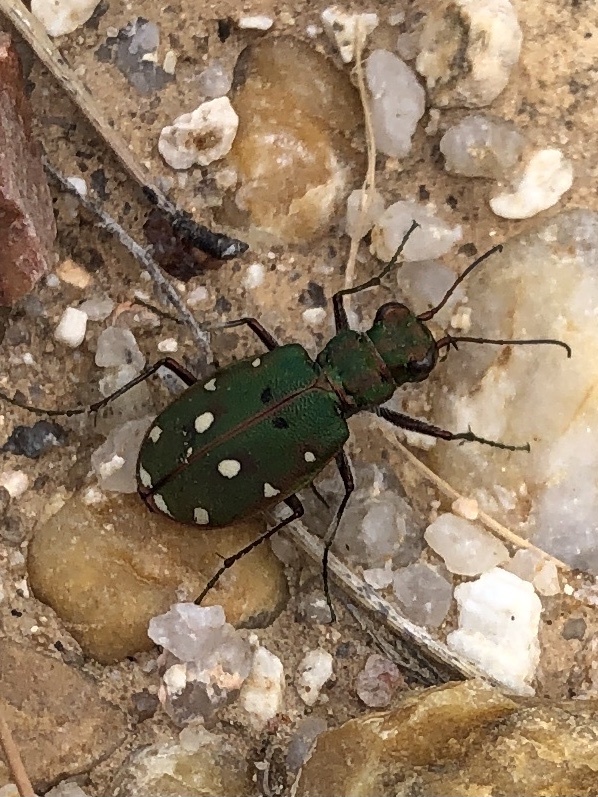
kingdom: Animalia
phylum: Arthropoda
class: Insecta
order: Coleoptera
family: Carabidae
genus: Cicindela
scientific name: Cicindela maroccana
